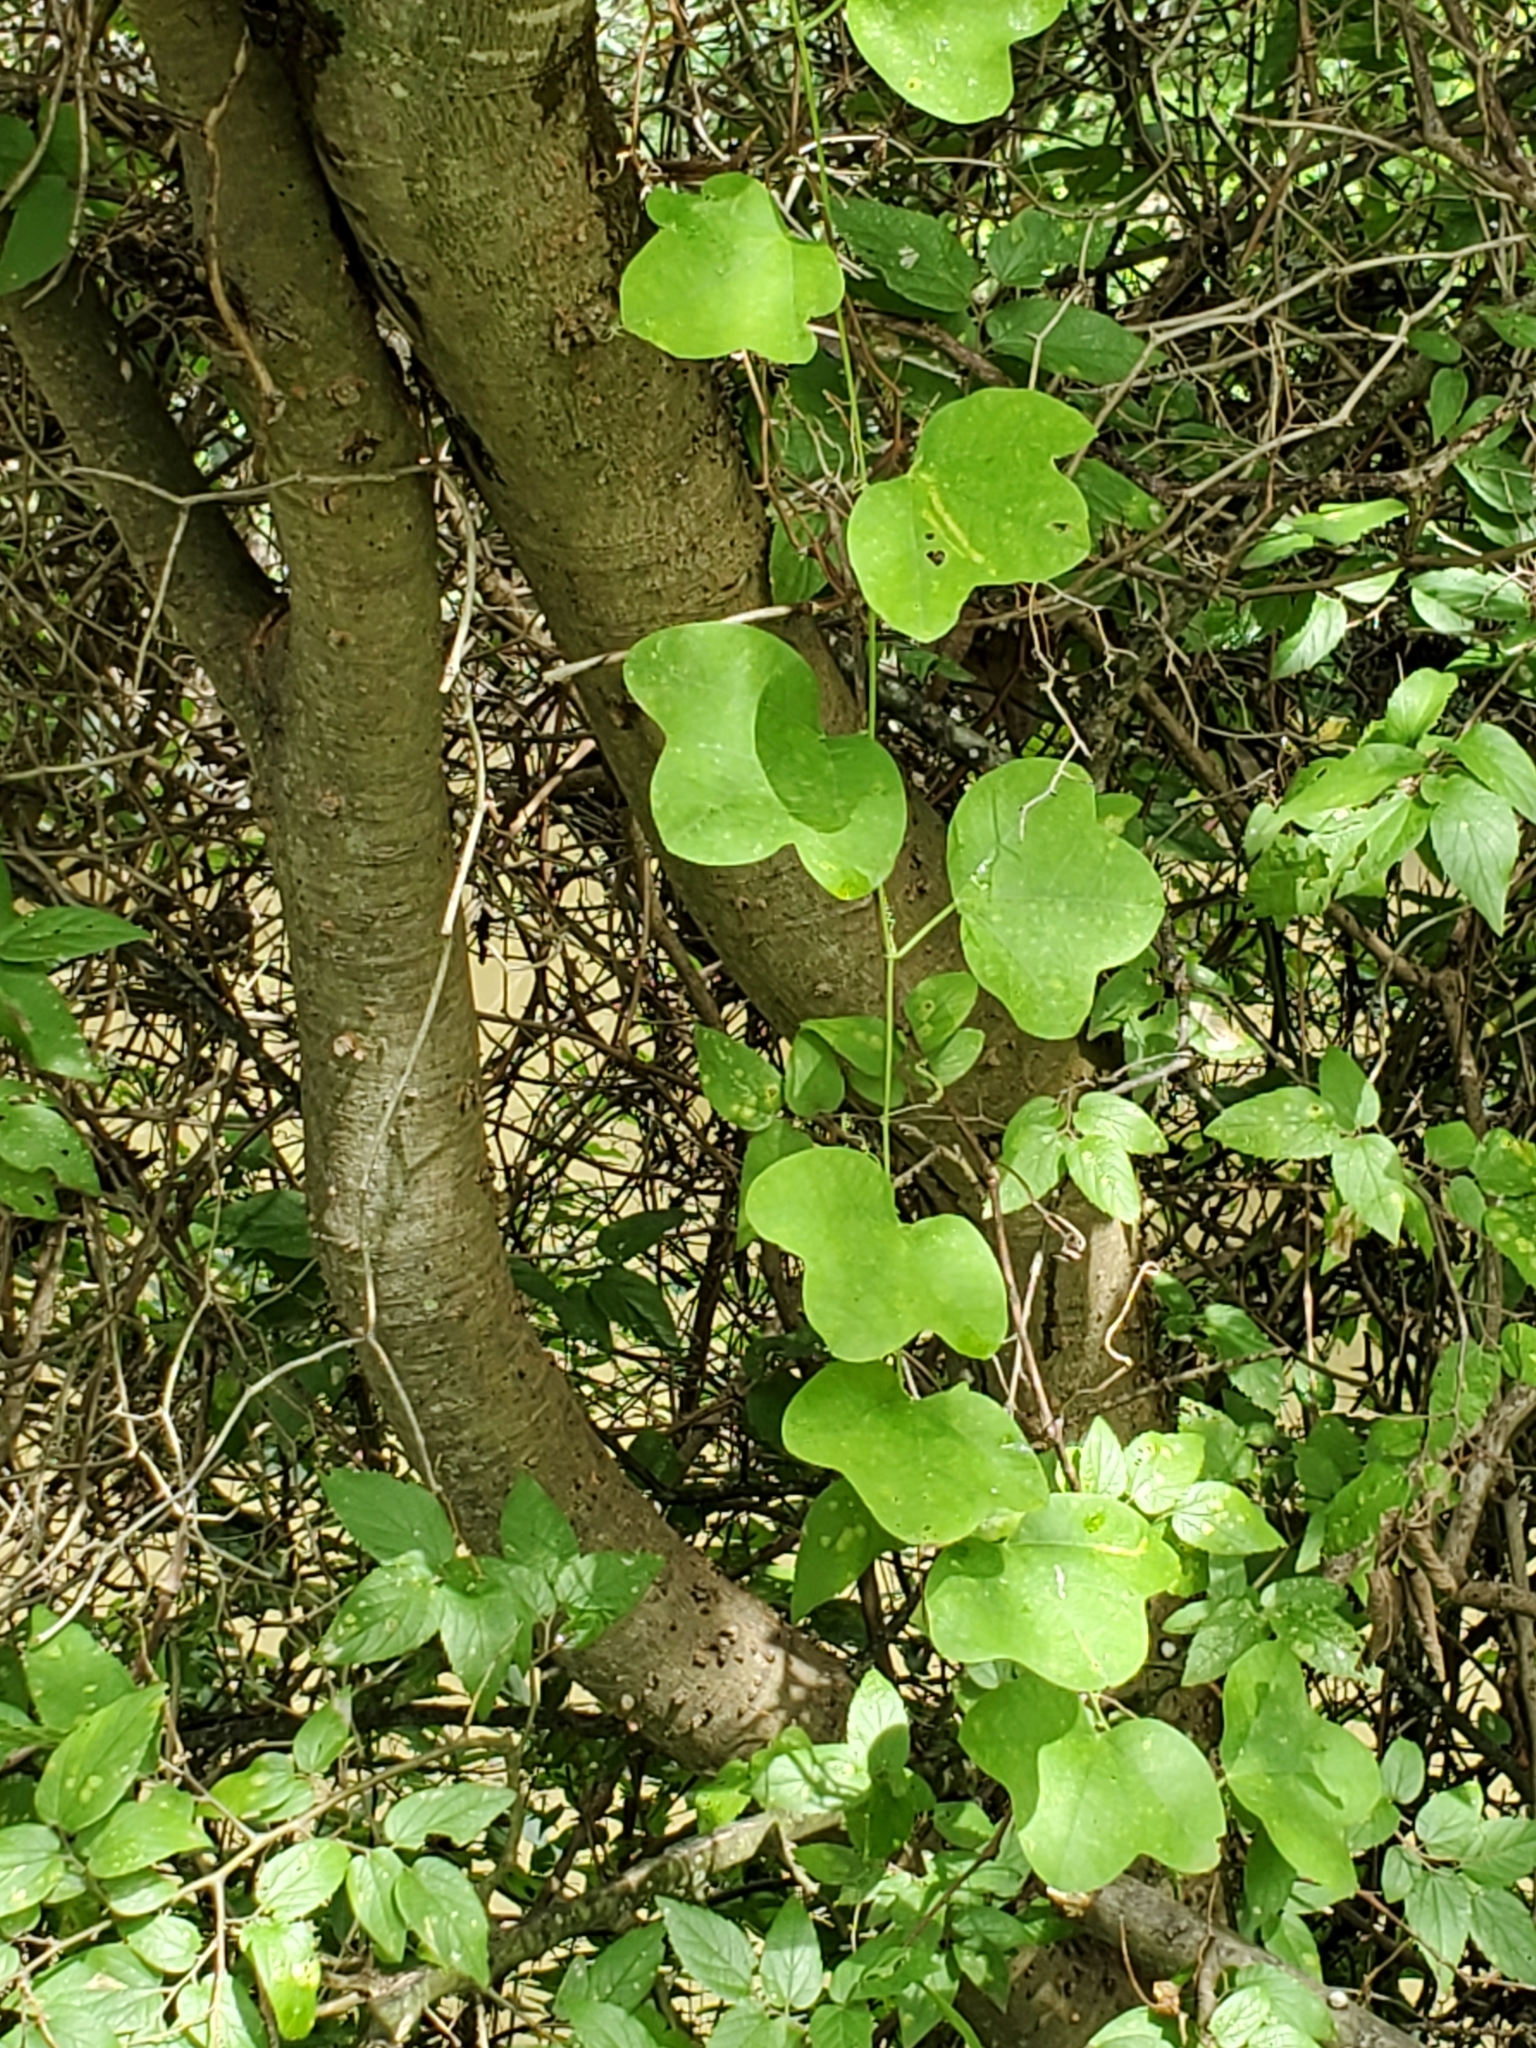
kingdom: Plantae
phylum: Tracheophyta
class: Magnoliopsida
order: Malpighiales
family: Passifloraceae
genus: Passiflora
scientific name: Passiflora lutea
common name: Yellow passionflower
